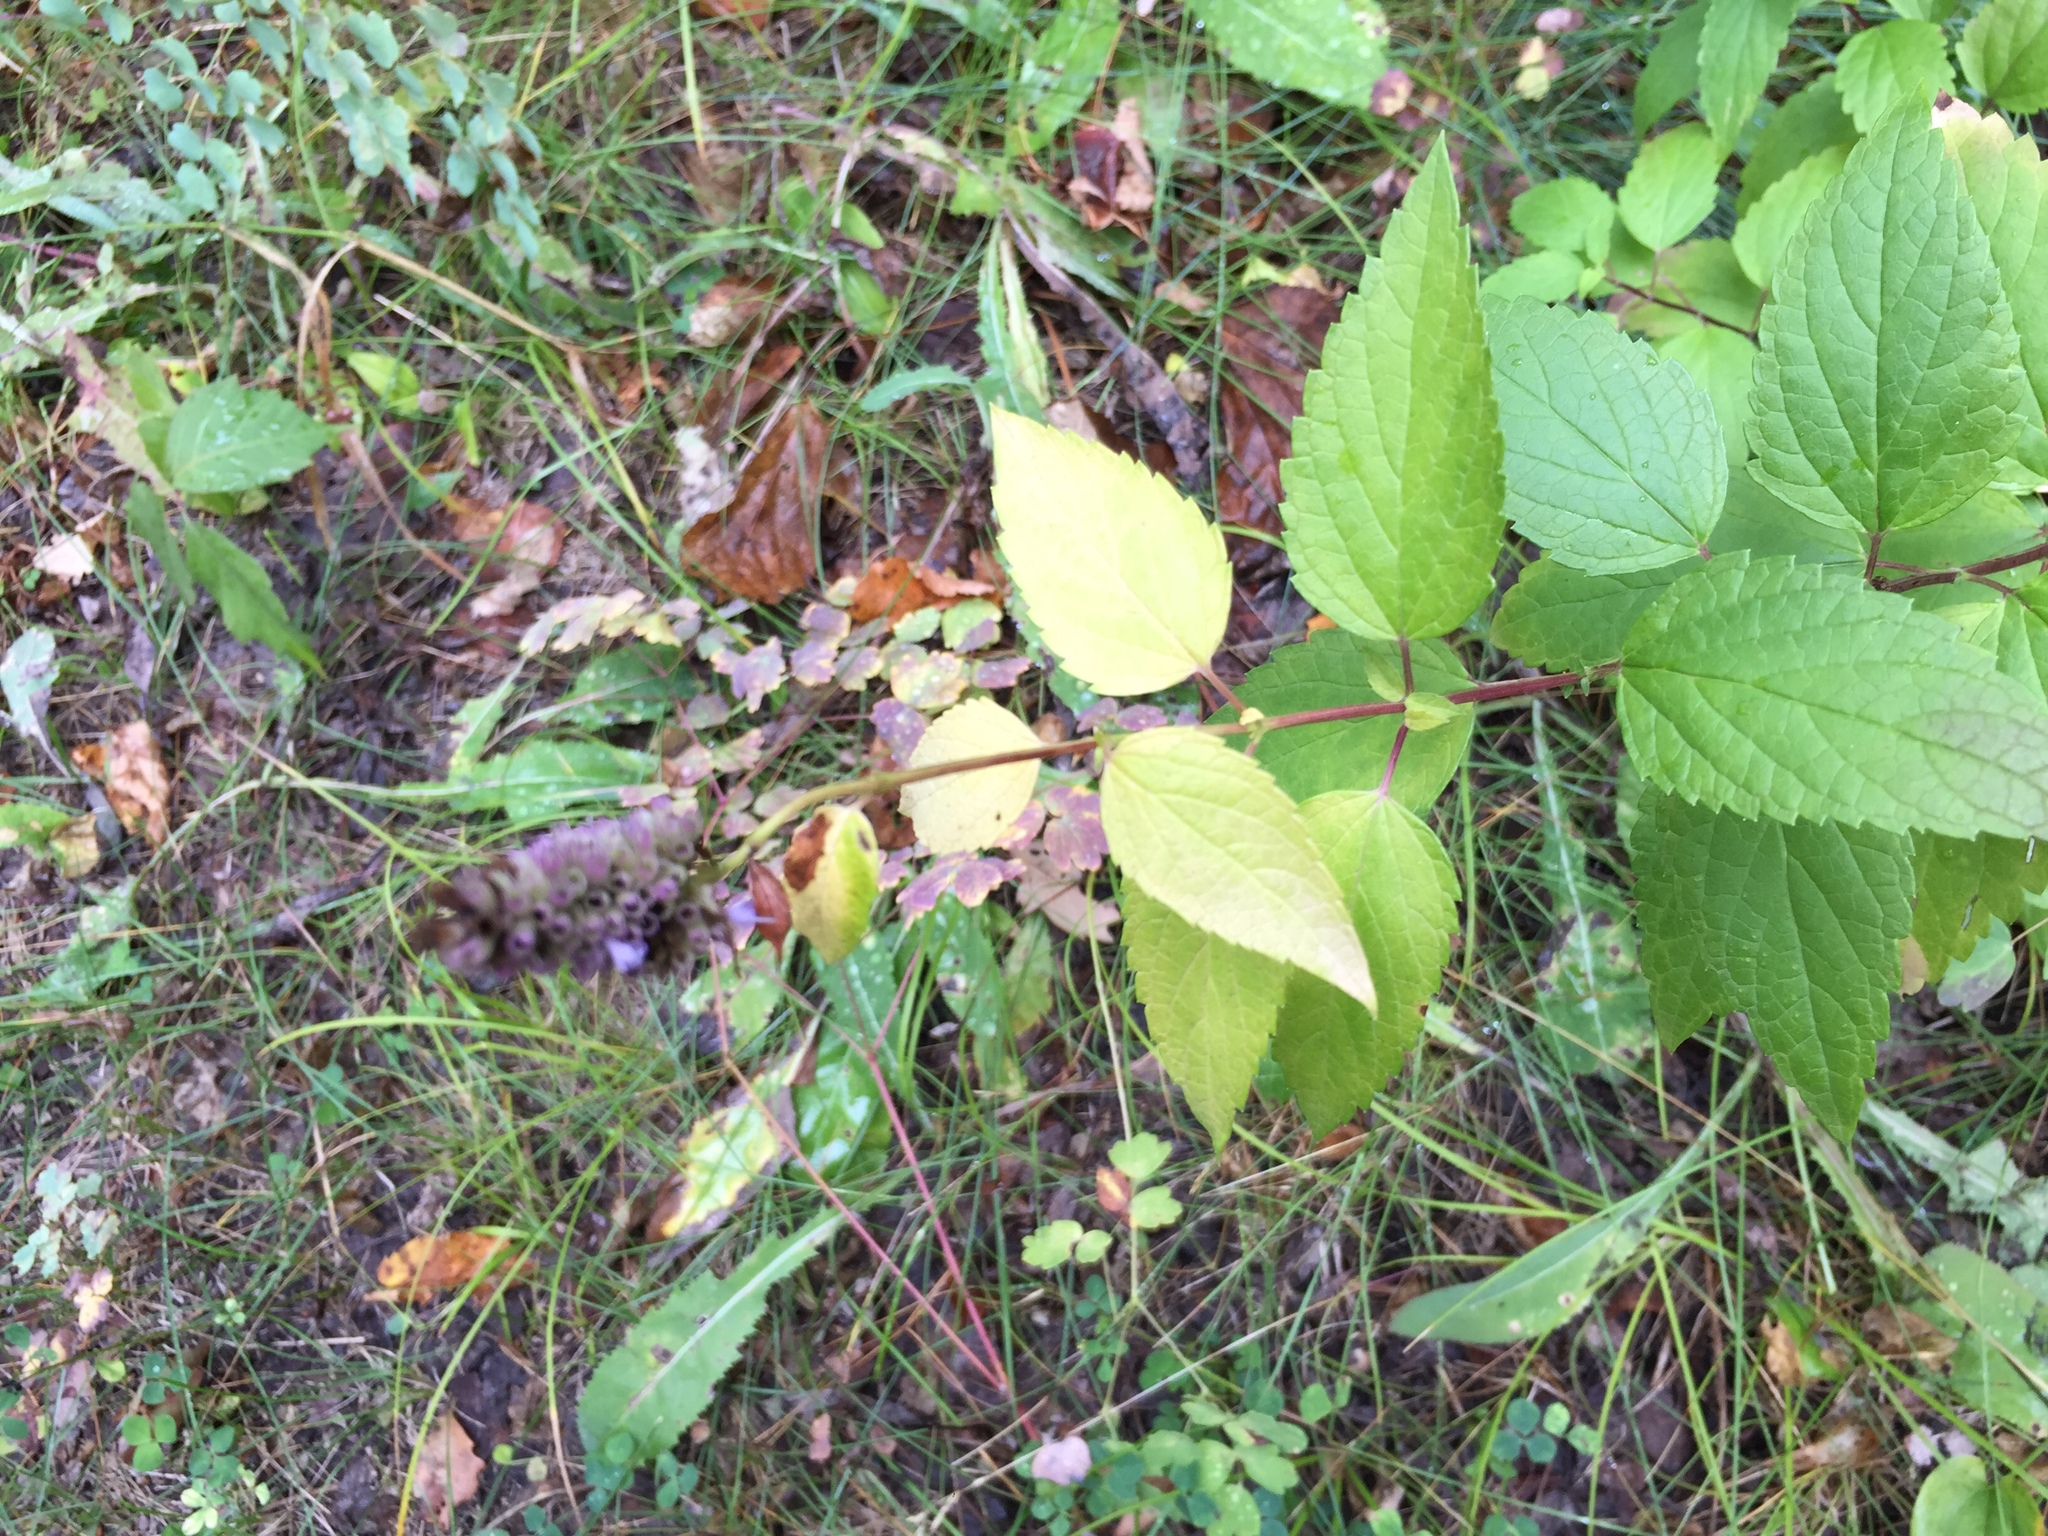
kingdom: Plantae
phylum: Tracheophyta
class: Magnoliopsida
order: Lamiales
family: Lamiaceae
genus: Agastache
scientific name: Agastache foeniculum
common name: Anise hyssop
